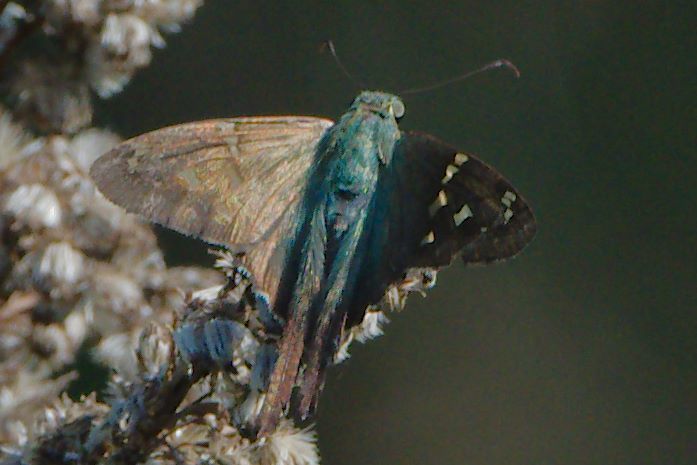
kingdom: Animalia
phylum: Arthropoda
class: Insecta
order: Lepidoptera
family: Hesperiidae
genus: Urbanus
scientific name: Urbanus proteus
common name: Long-tailed skipper
